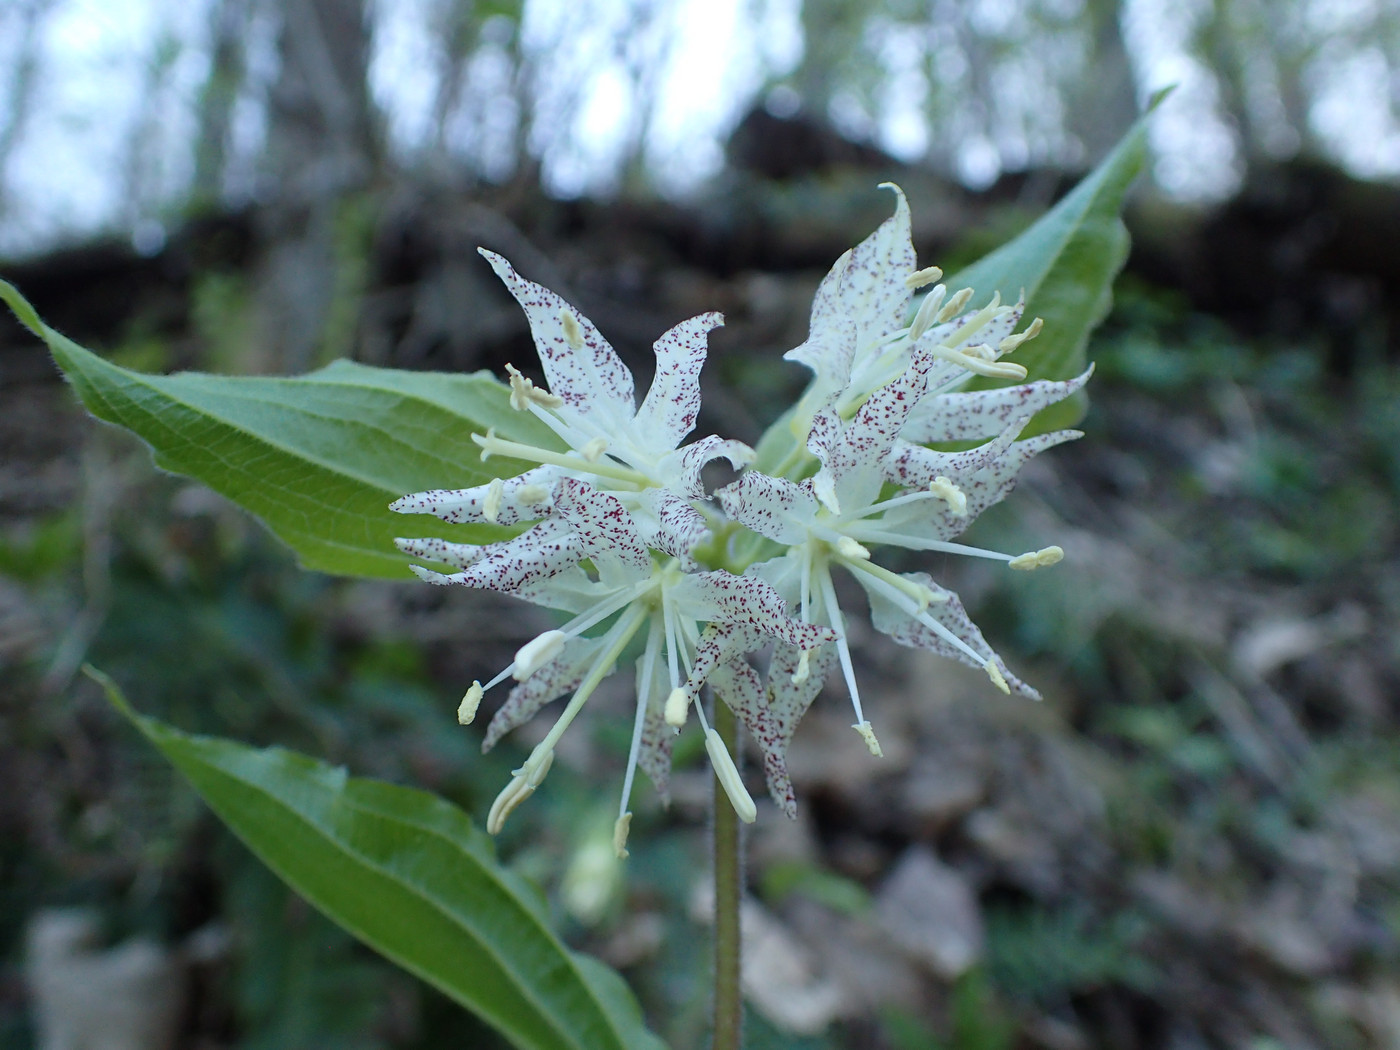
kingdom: Plantae
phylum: Tracheophyta
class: Liliopsida
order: Liliales
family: Liliaceae
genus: Prosartes
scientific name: Prosartes maculata
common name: Yellow mandarin
